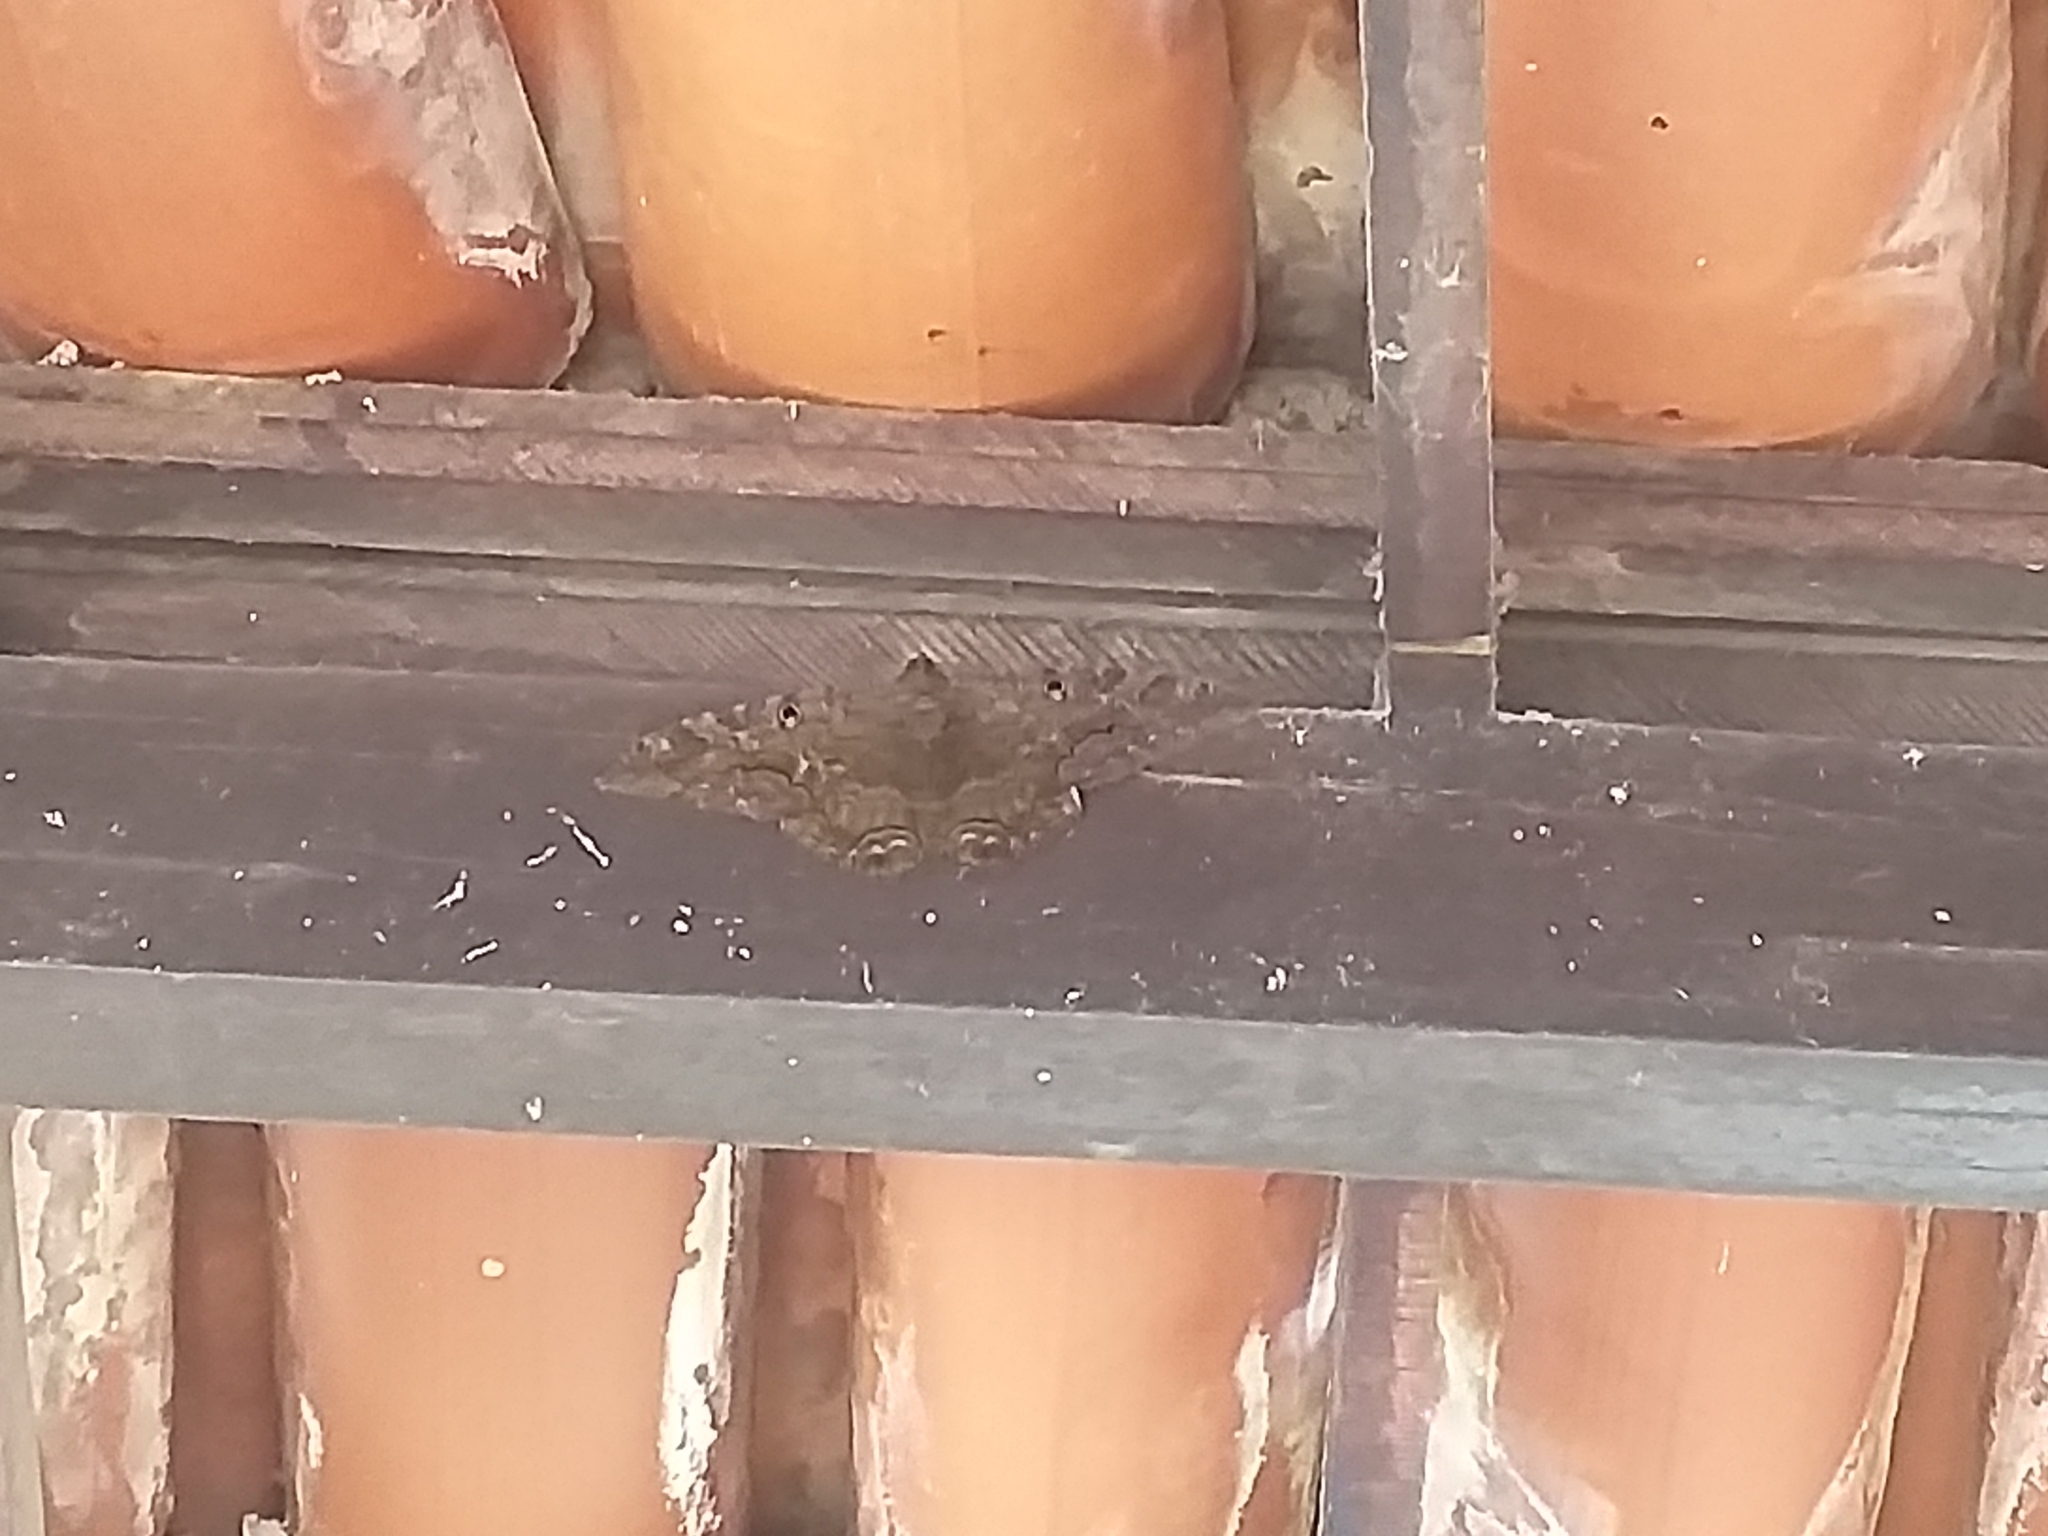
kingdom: Animalia
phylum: Arthropoda
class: Insecta
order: Lepidoptera
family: Erebidae
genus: Ascalapha
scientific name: Ascalapha odorata
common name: Black witch
